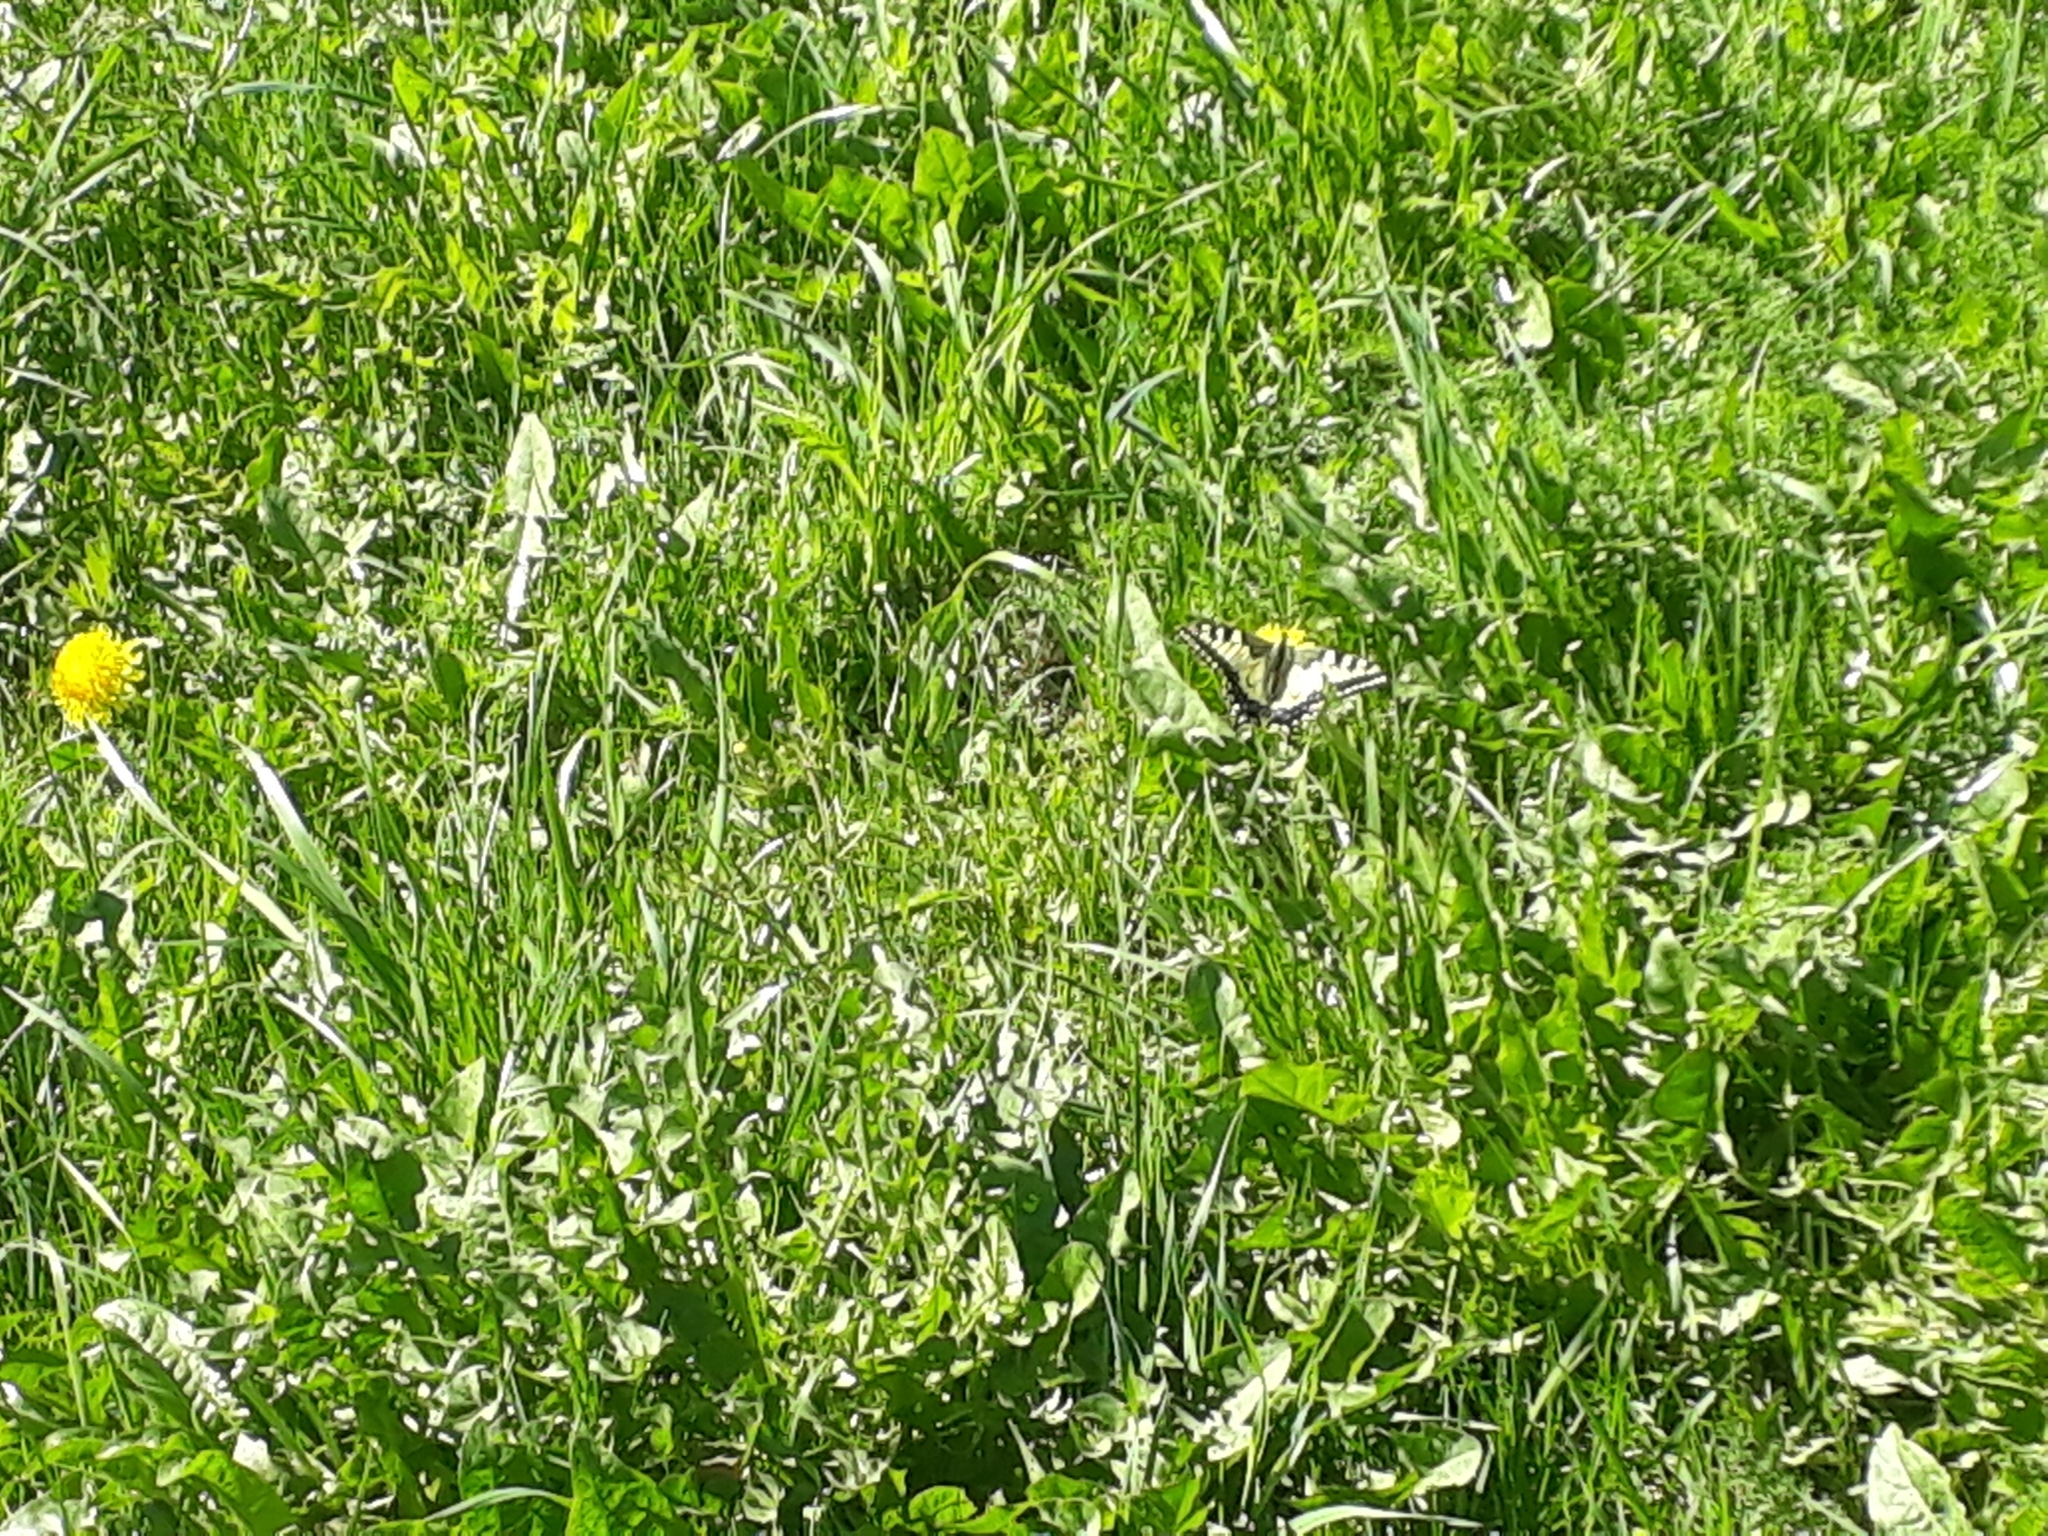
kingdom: Animalia
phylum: Arthropoda
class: Insecta
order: Lepidoptera
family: Papilionidae
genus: Papilio
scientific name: Papilio machaon
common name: Swallowtail
